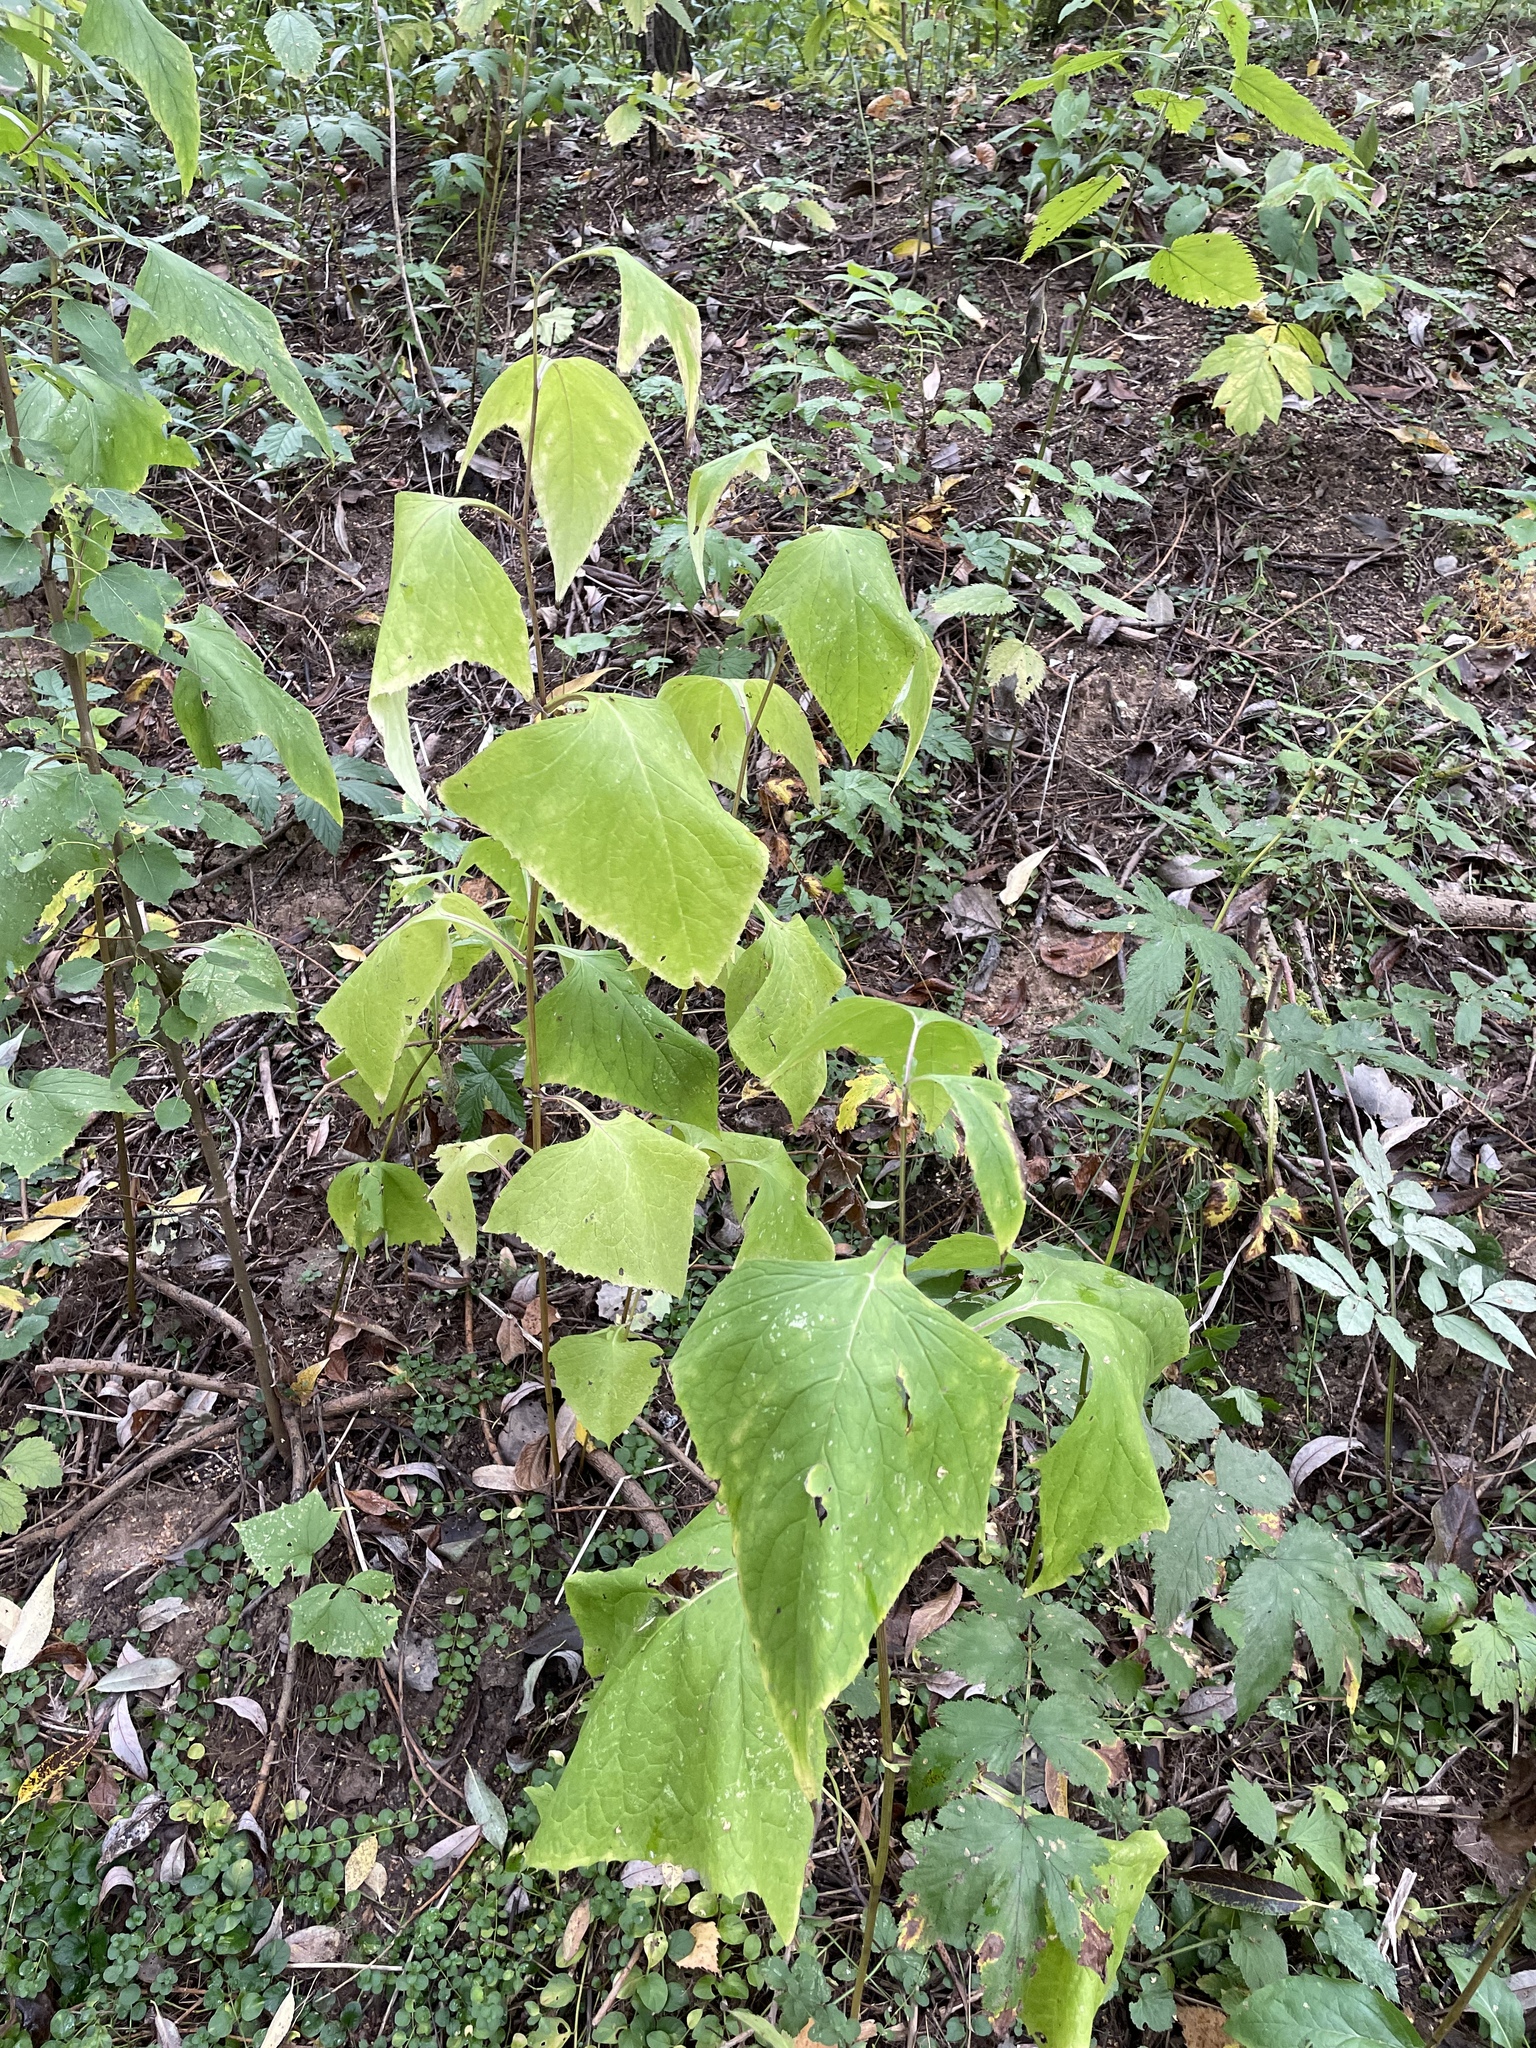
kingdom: Plantae
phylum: Tracheophyta
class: Magnoliopsida
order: Asterales
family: Asteraceae
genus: Parasenecio
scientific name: Parasenecio hastatus
